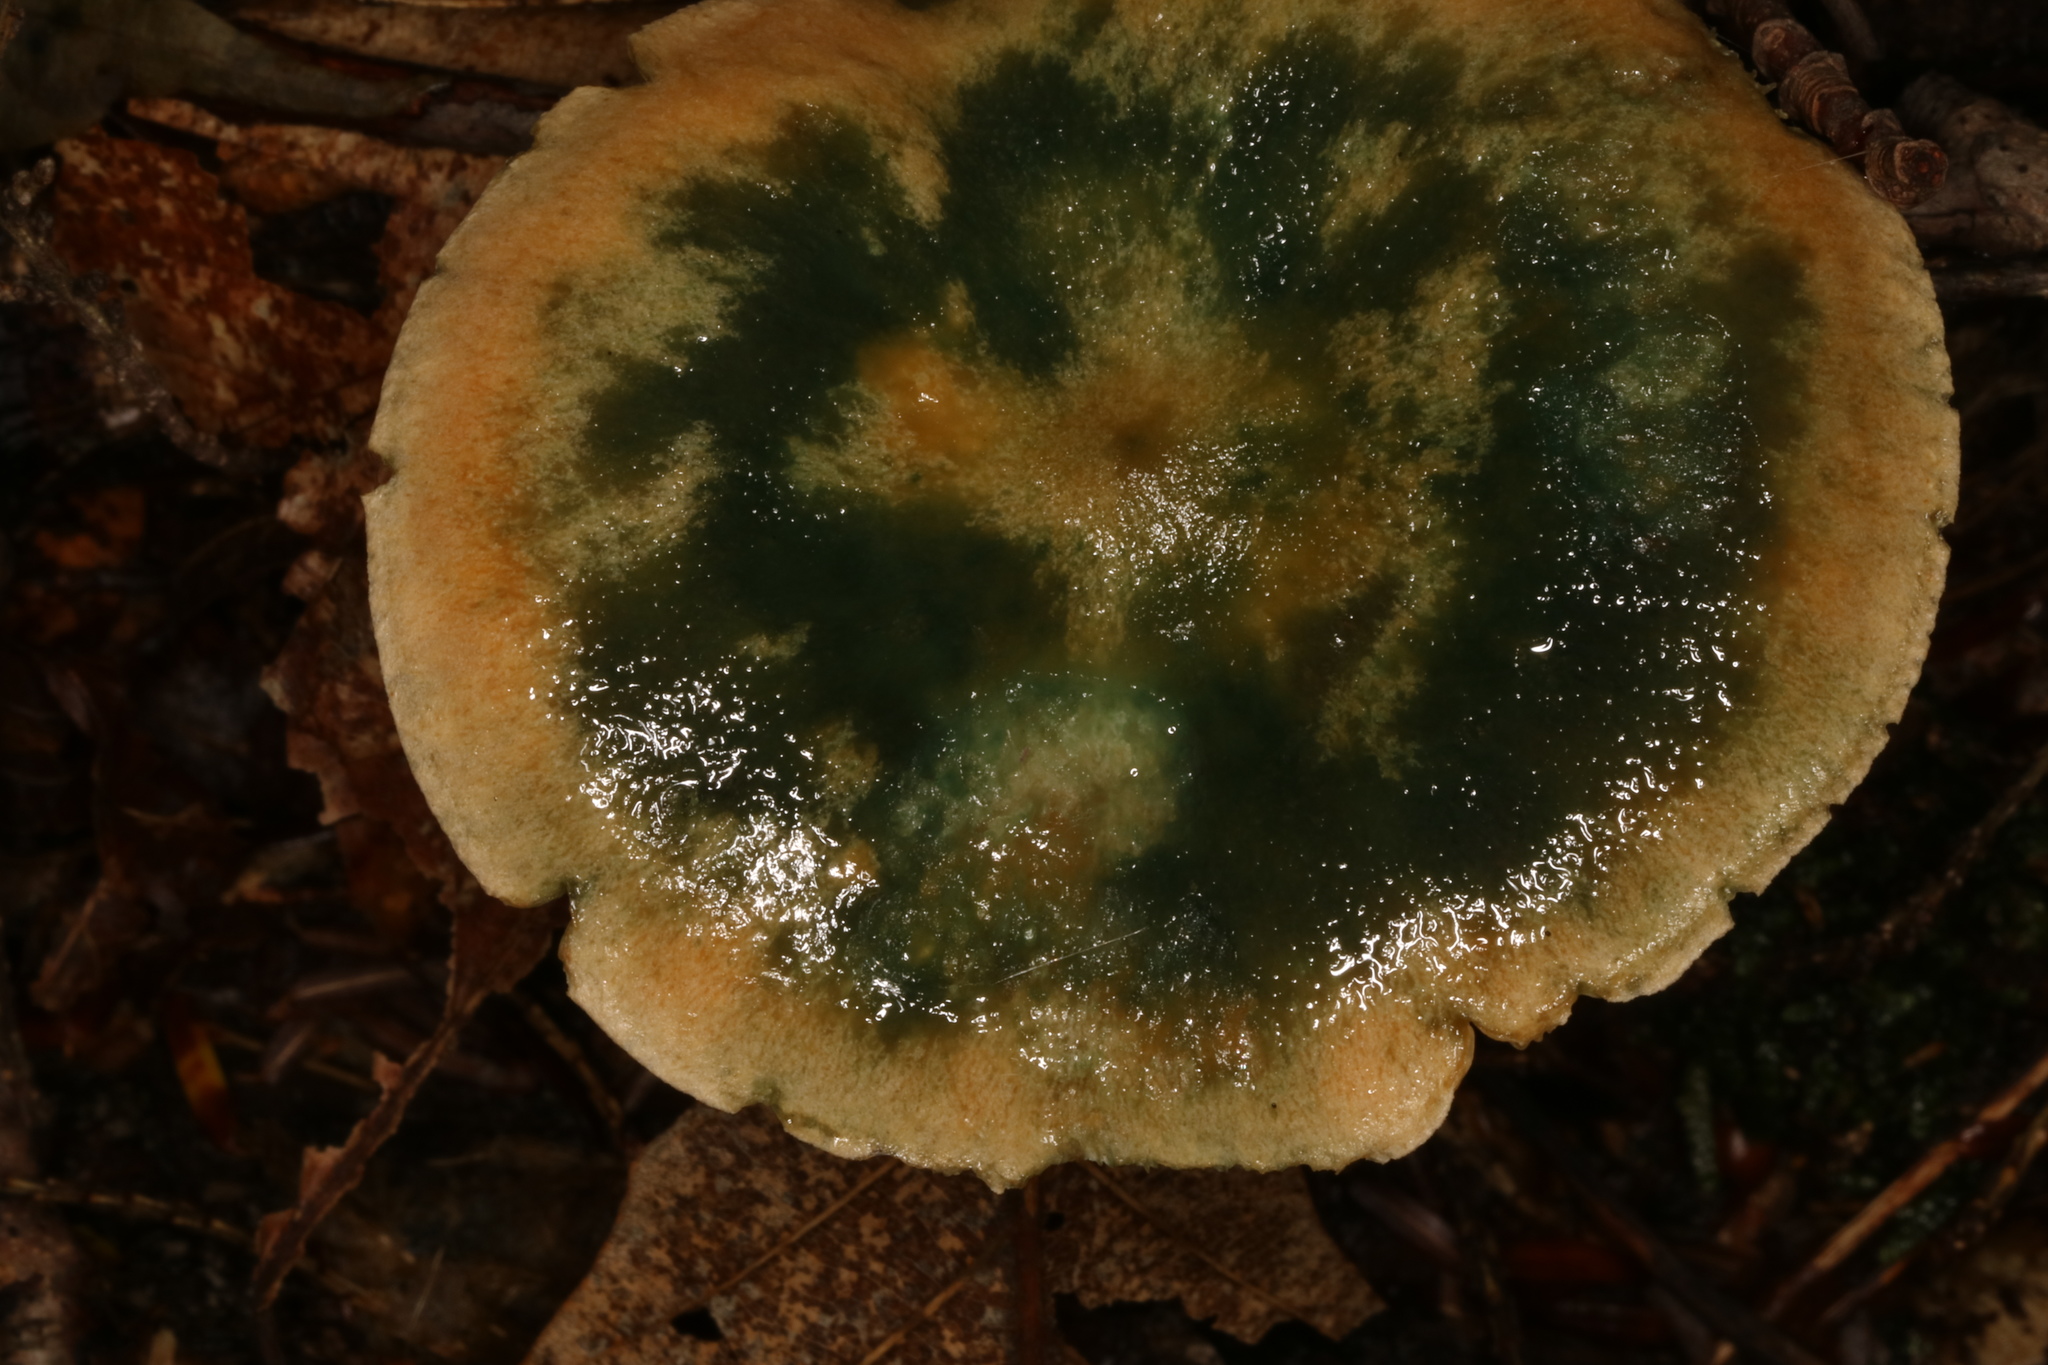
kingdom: Fungi
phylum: Basidiomycota
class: Agaricomycetes
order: Russulales
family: Russulaceae
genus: Lactarius
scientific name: Lactarius deterrimus
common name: False saffron milkcap
